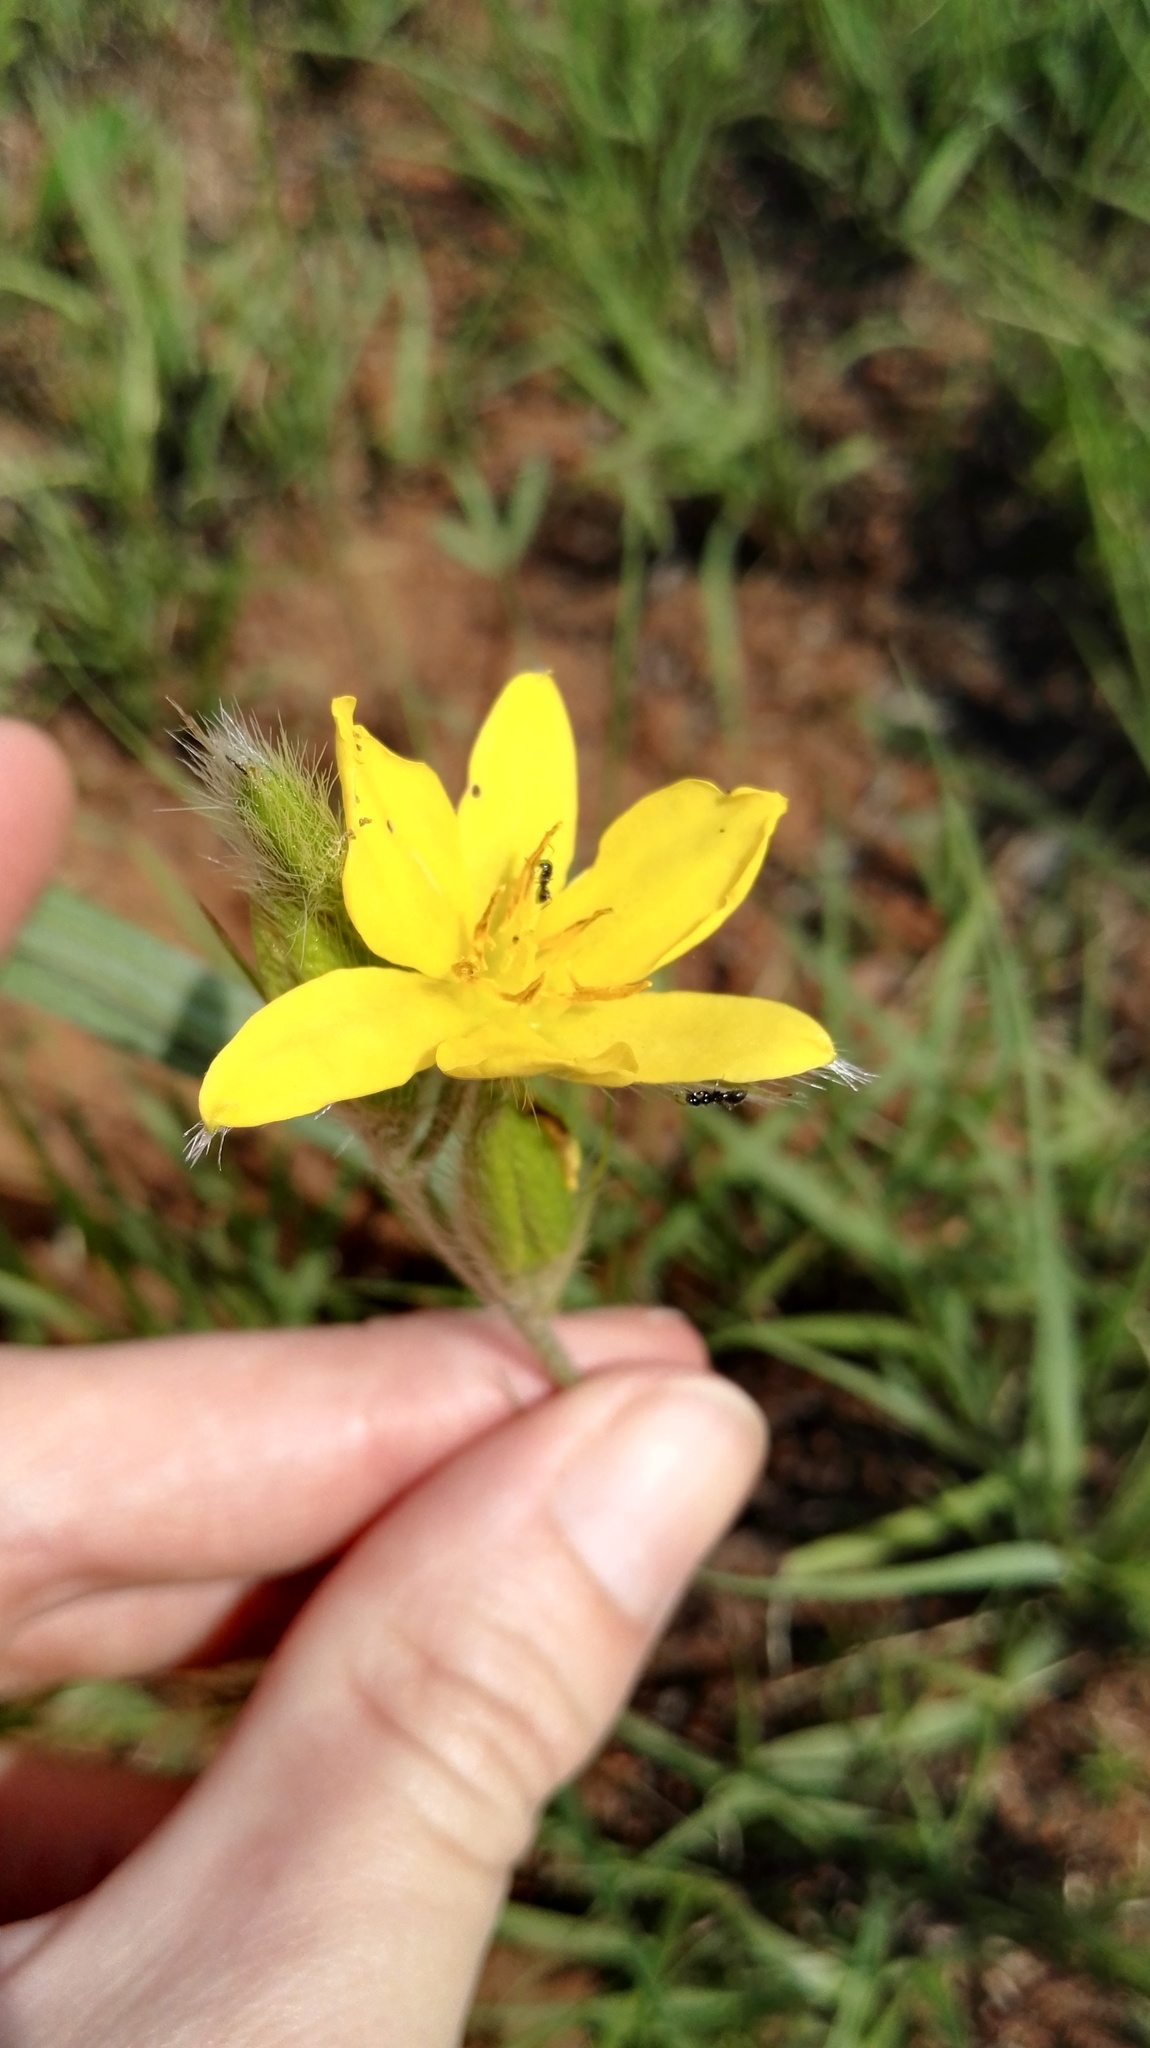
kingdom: Plantae
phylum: Tracheophyta
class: Liliopsida
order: Asparagales
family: Hypoxidaceae
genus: Hypoxis
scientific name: Hypoxis rigidula
